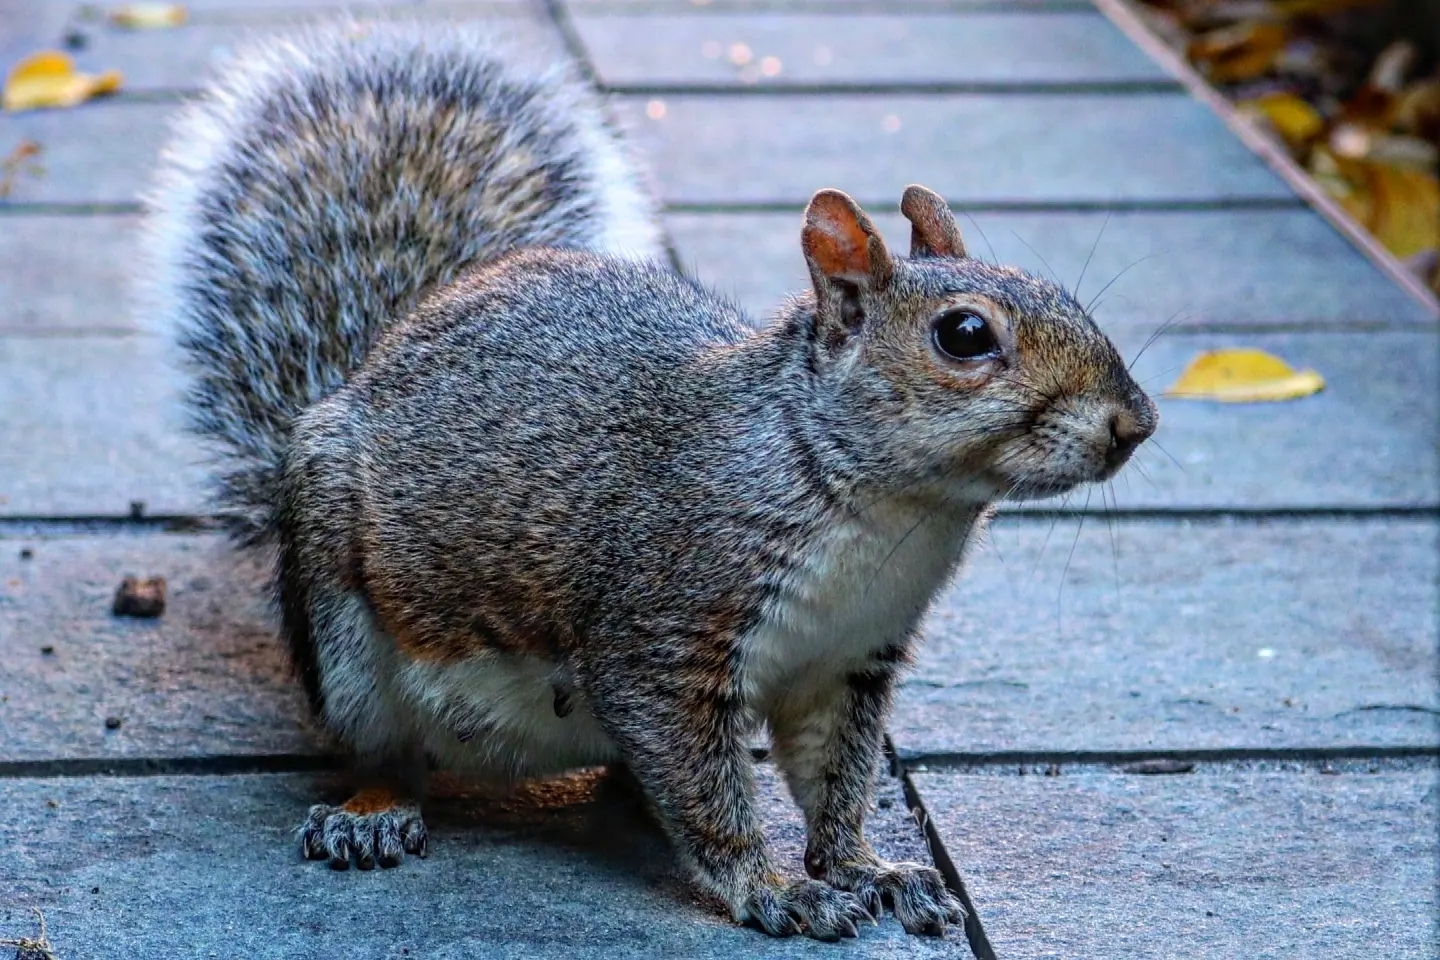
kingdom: Animalia
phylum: Chordata
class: Mammalia
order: Rodentia
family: Sciuridae
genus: Sciurus
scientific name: Sciurus carolinensis
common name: Eastern gray squirrel
